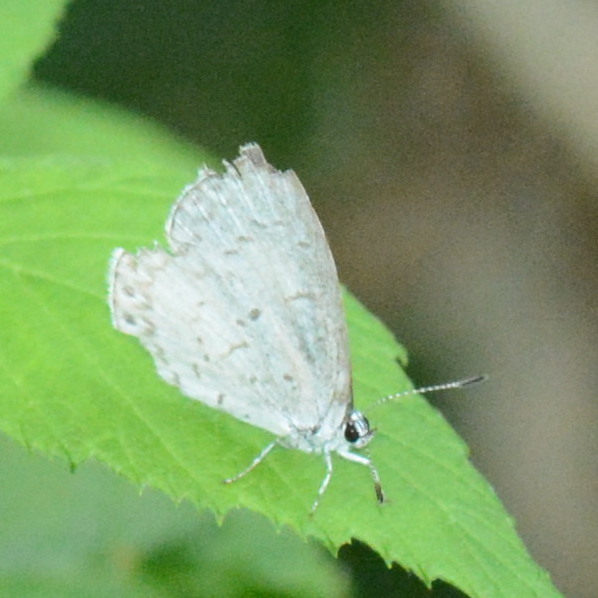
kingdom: Animalia
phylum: Arthropoda
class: Insecta
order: Lepidoptera
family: Lycaenidae
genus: Cyaniris
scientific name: Cyaniris neglecta
